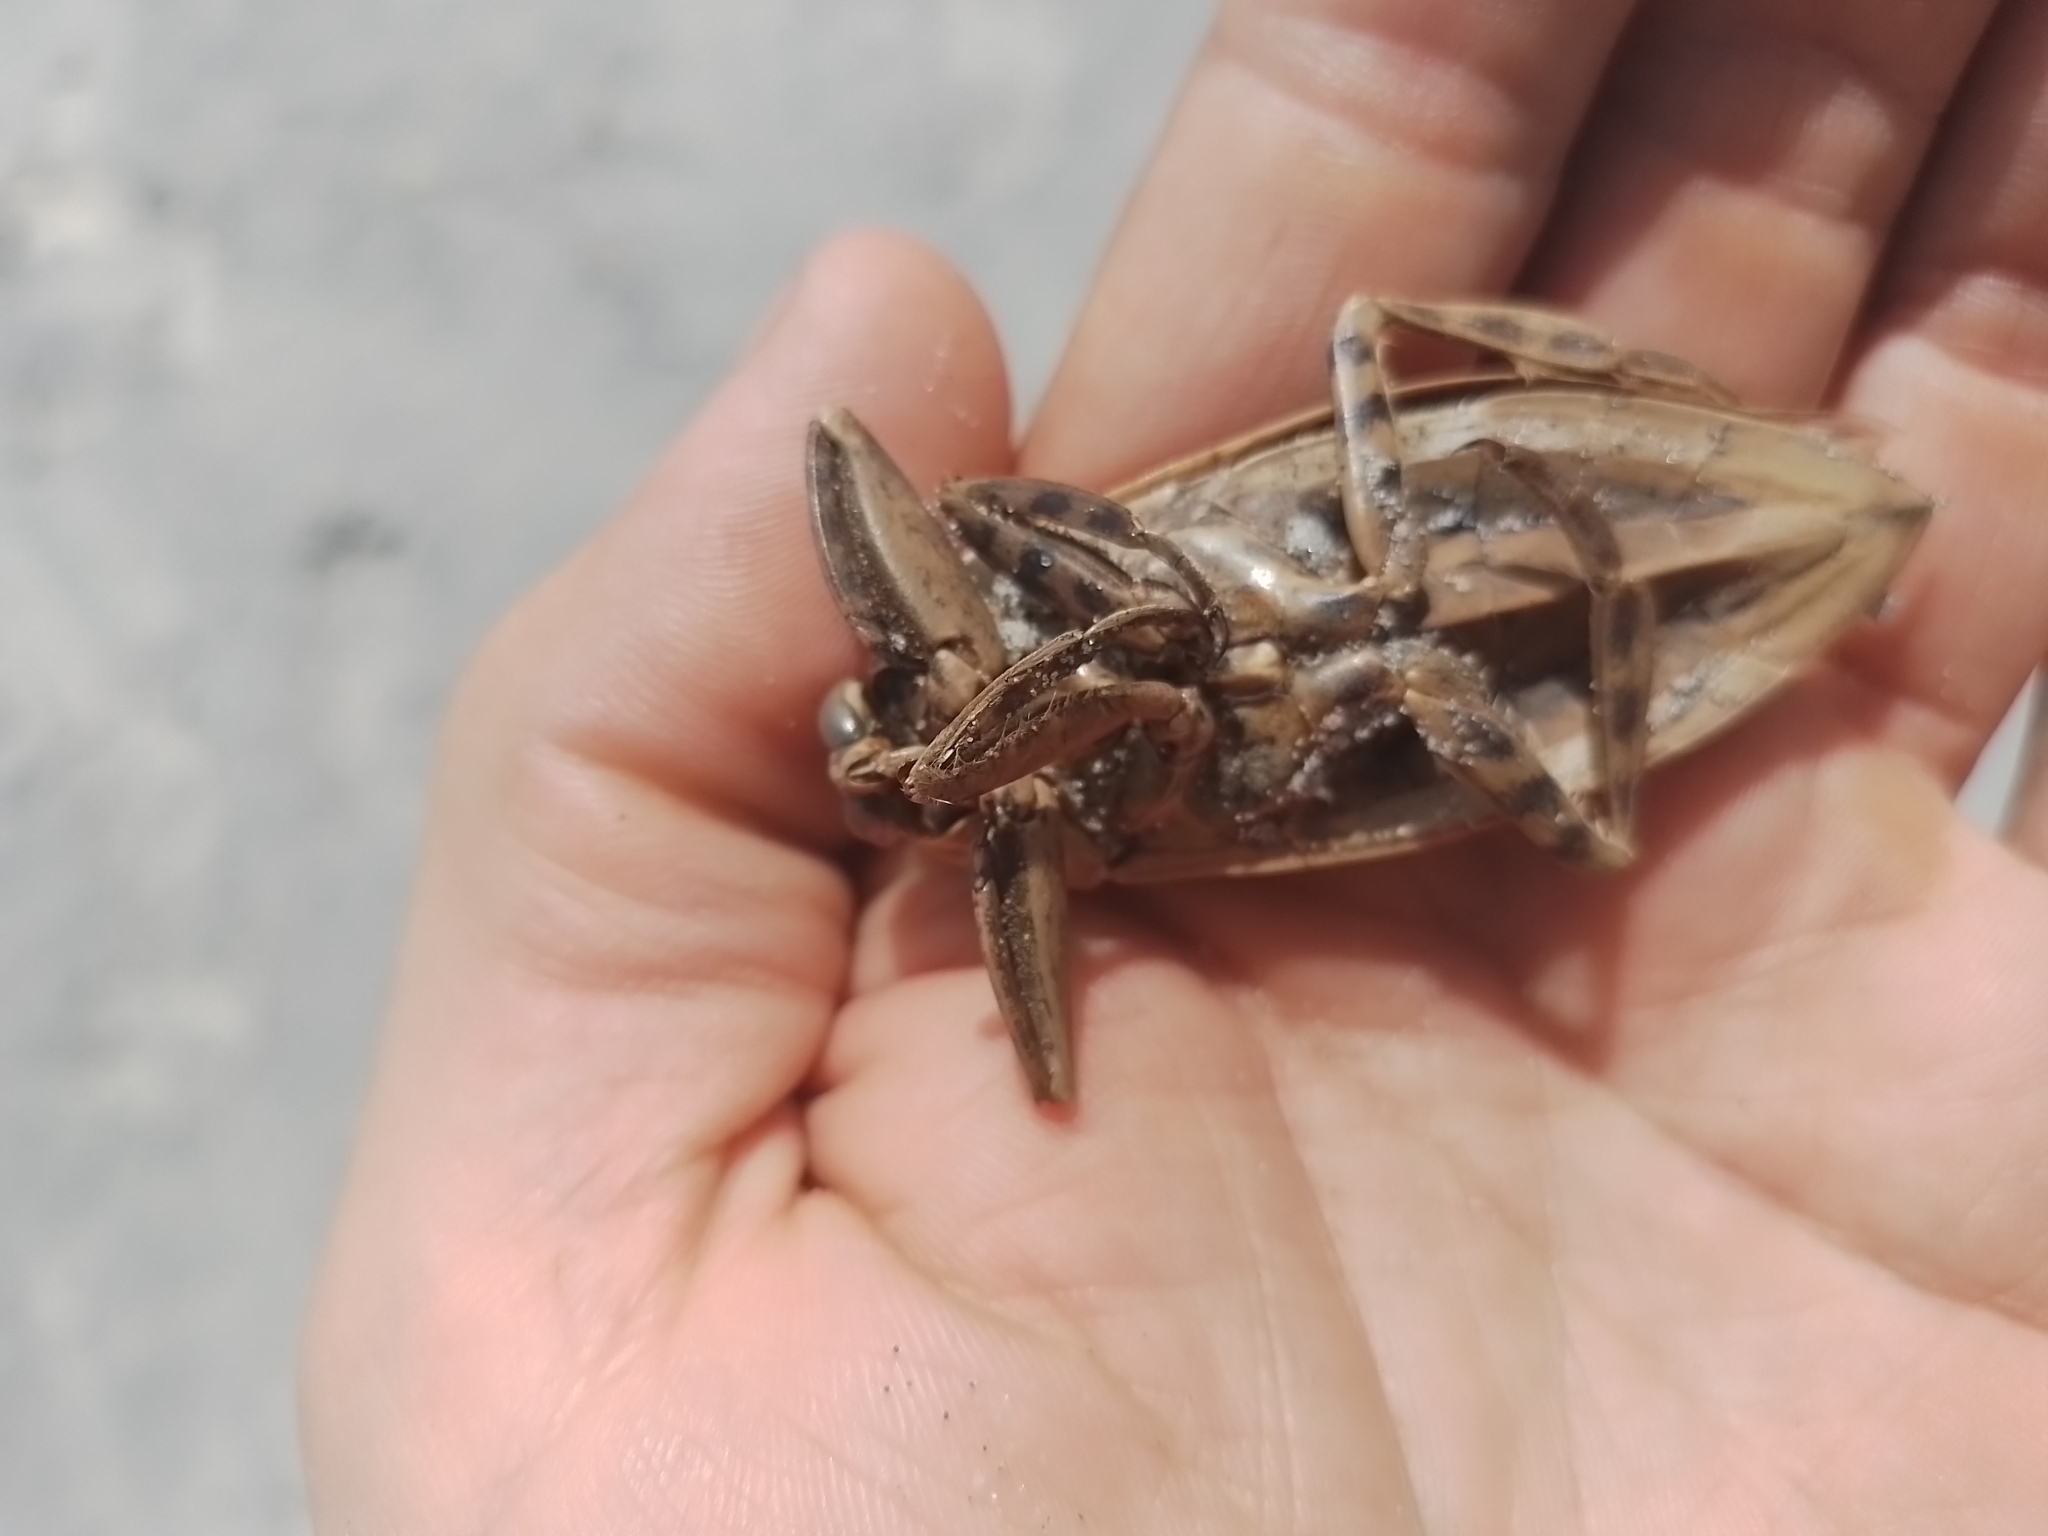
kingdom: Animalia
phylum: Arthropoda
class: Insecta
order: Hemiptera
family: Belostomatidae
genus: Lethocerus
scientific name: Lethocerus annulipes
